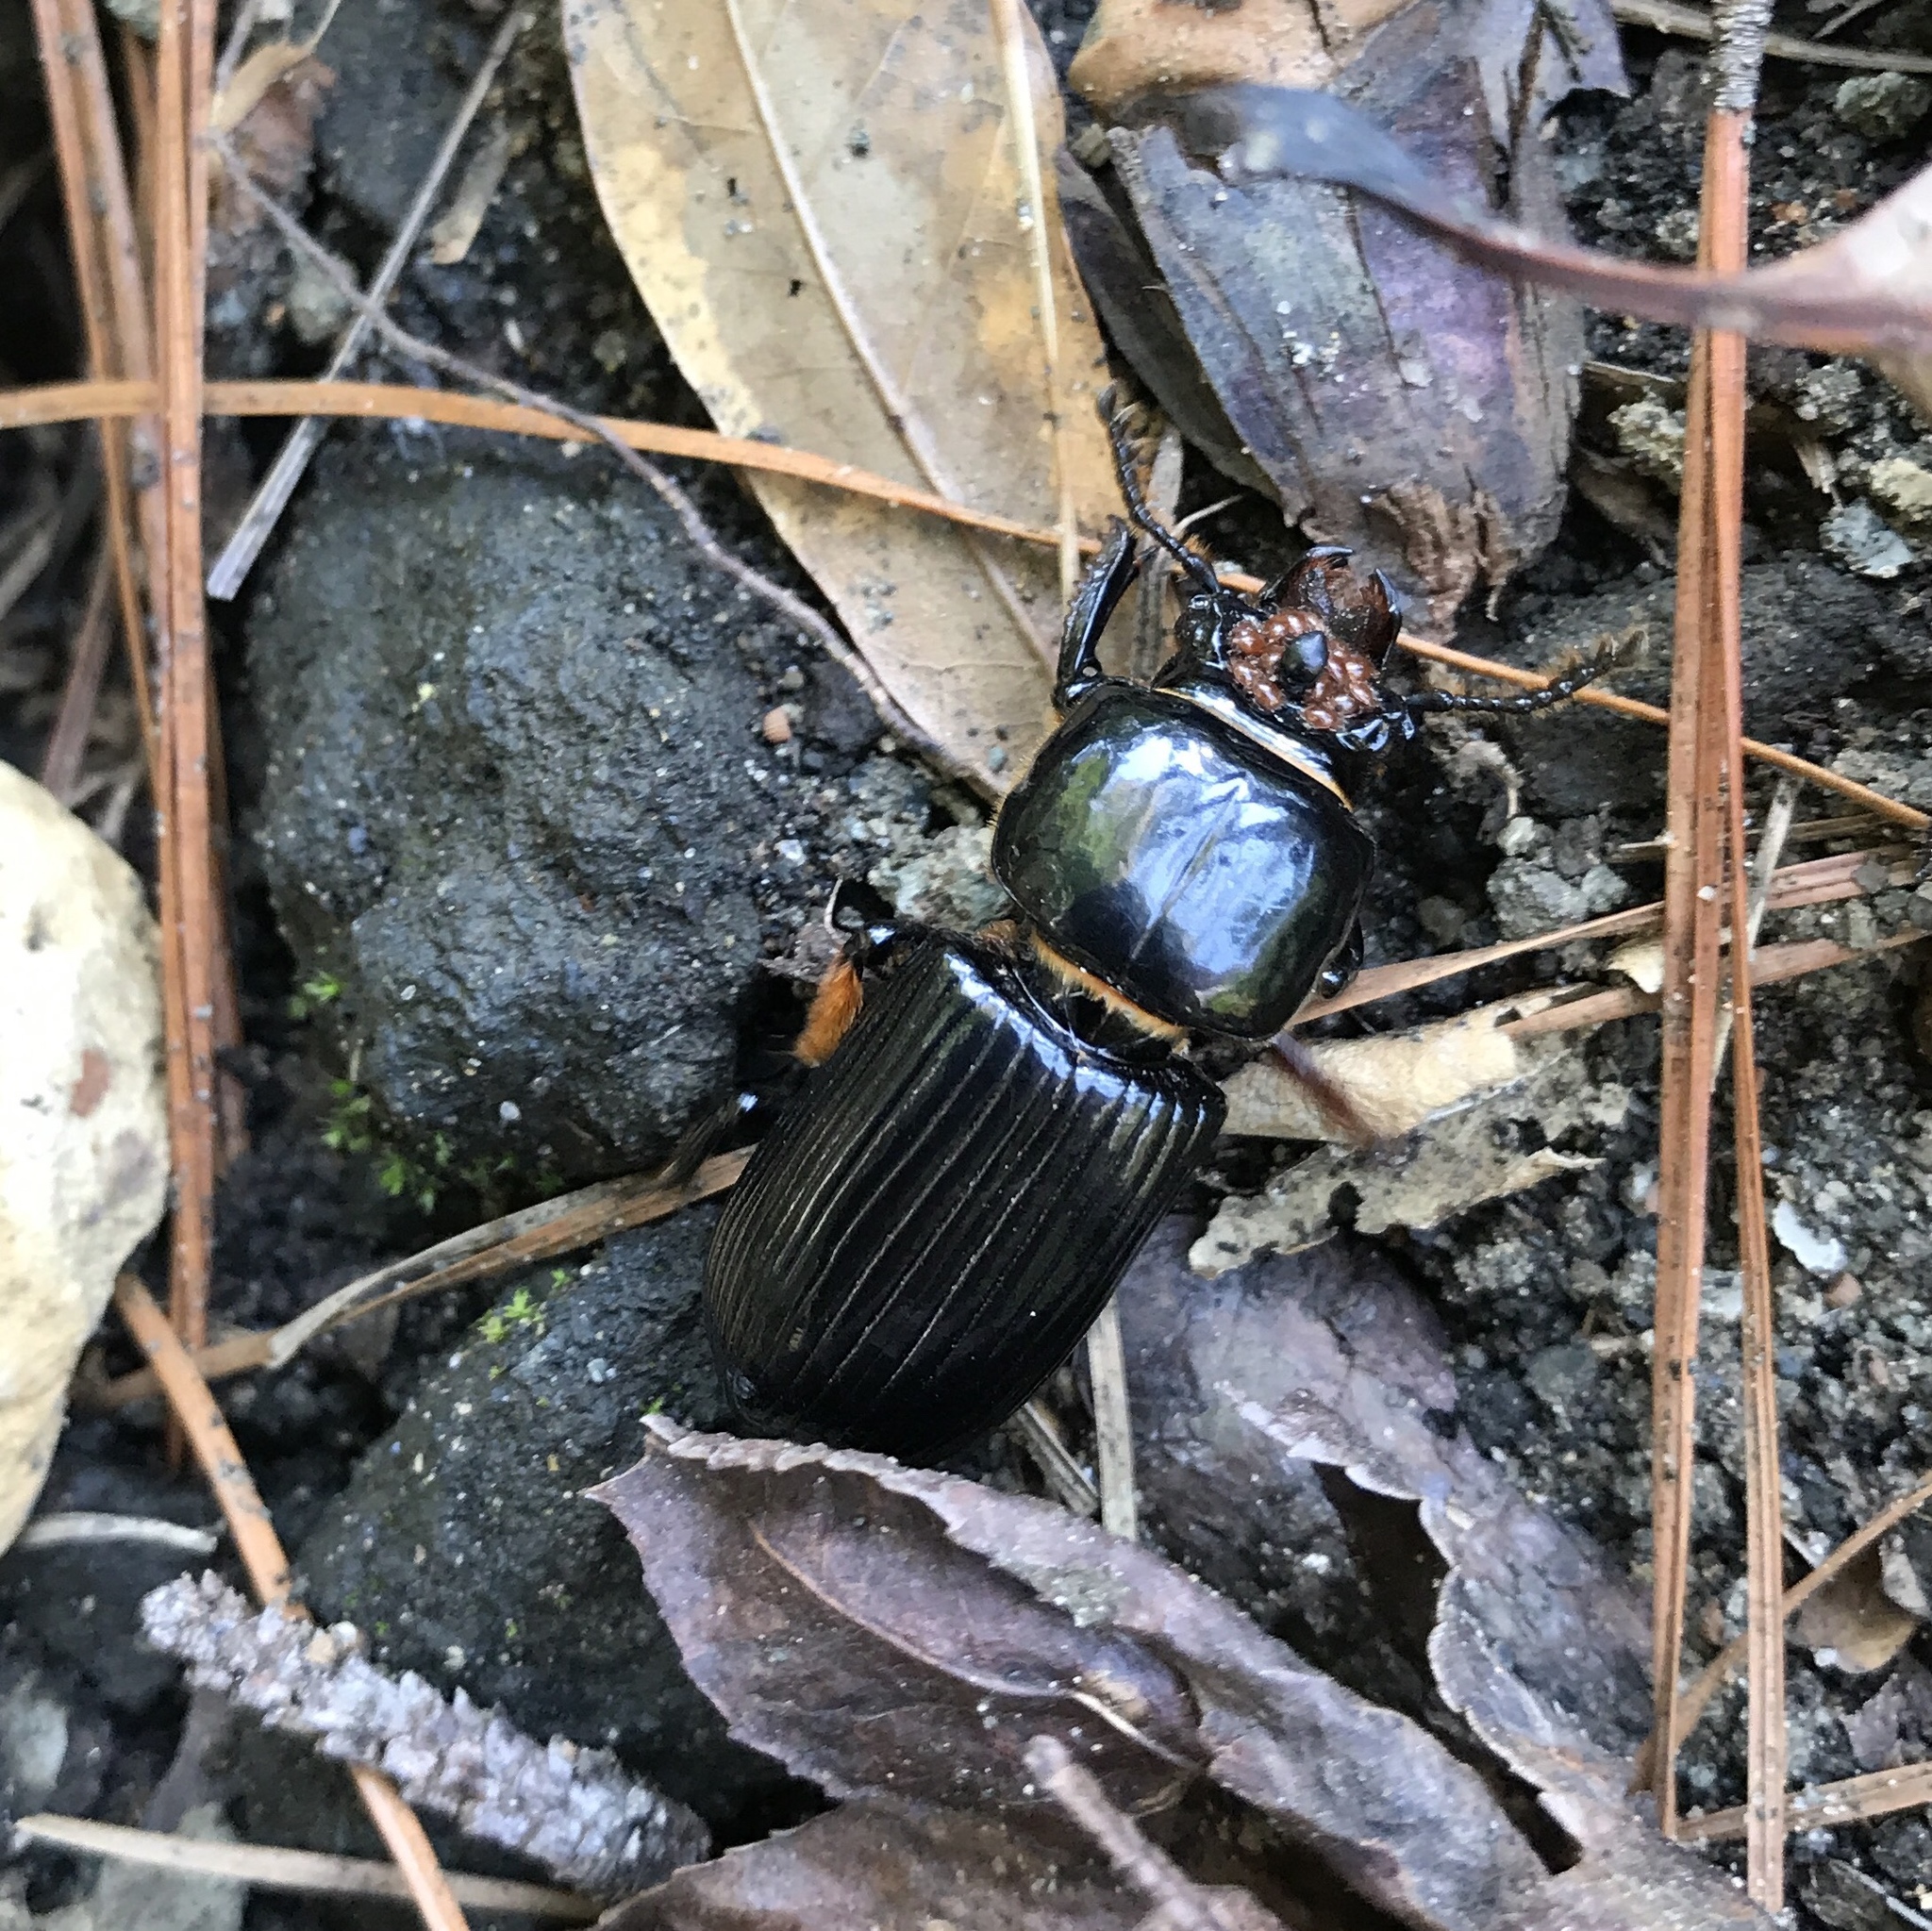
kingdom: Animalia
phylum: Arthropoda
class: Insecta
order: Coleoptera
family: Passalidae
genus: Odontotaenius
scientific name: Odontotaenius disjunctus
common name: Patent leather beetle
